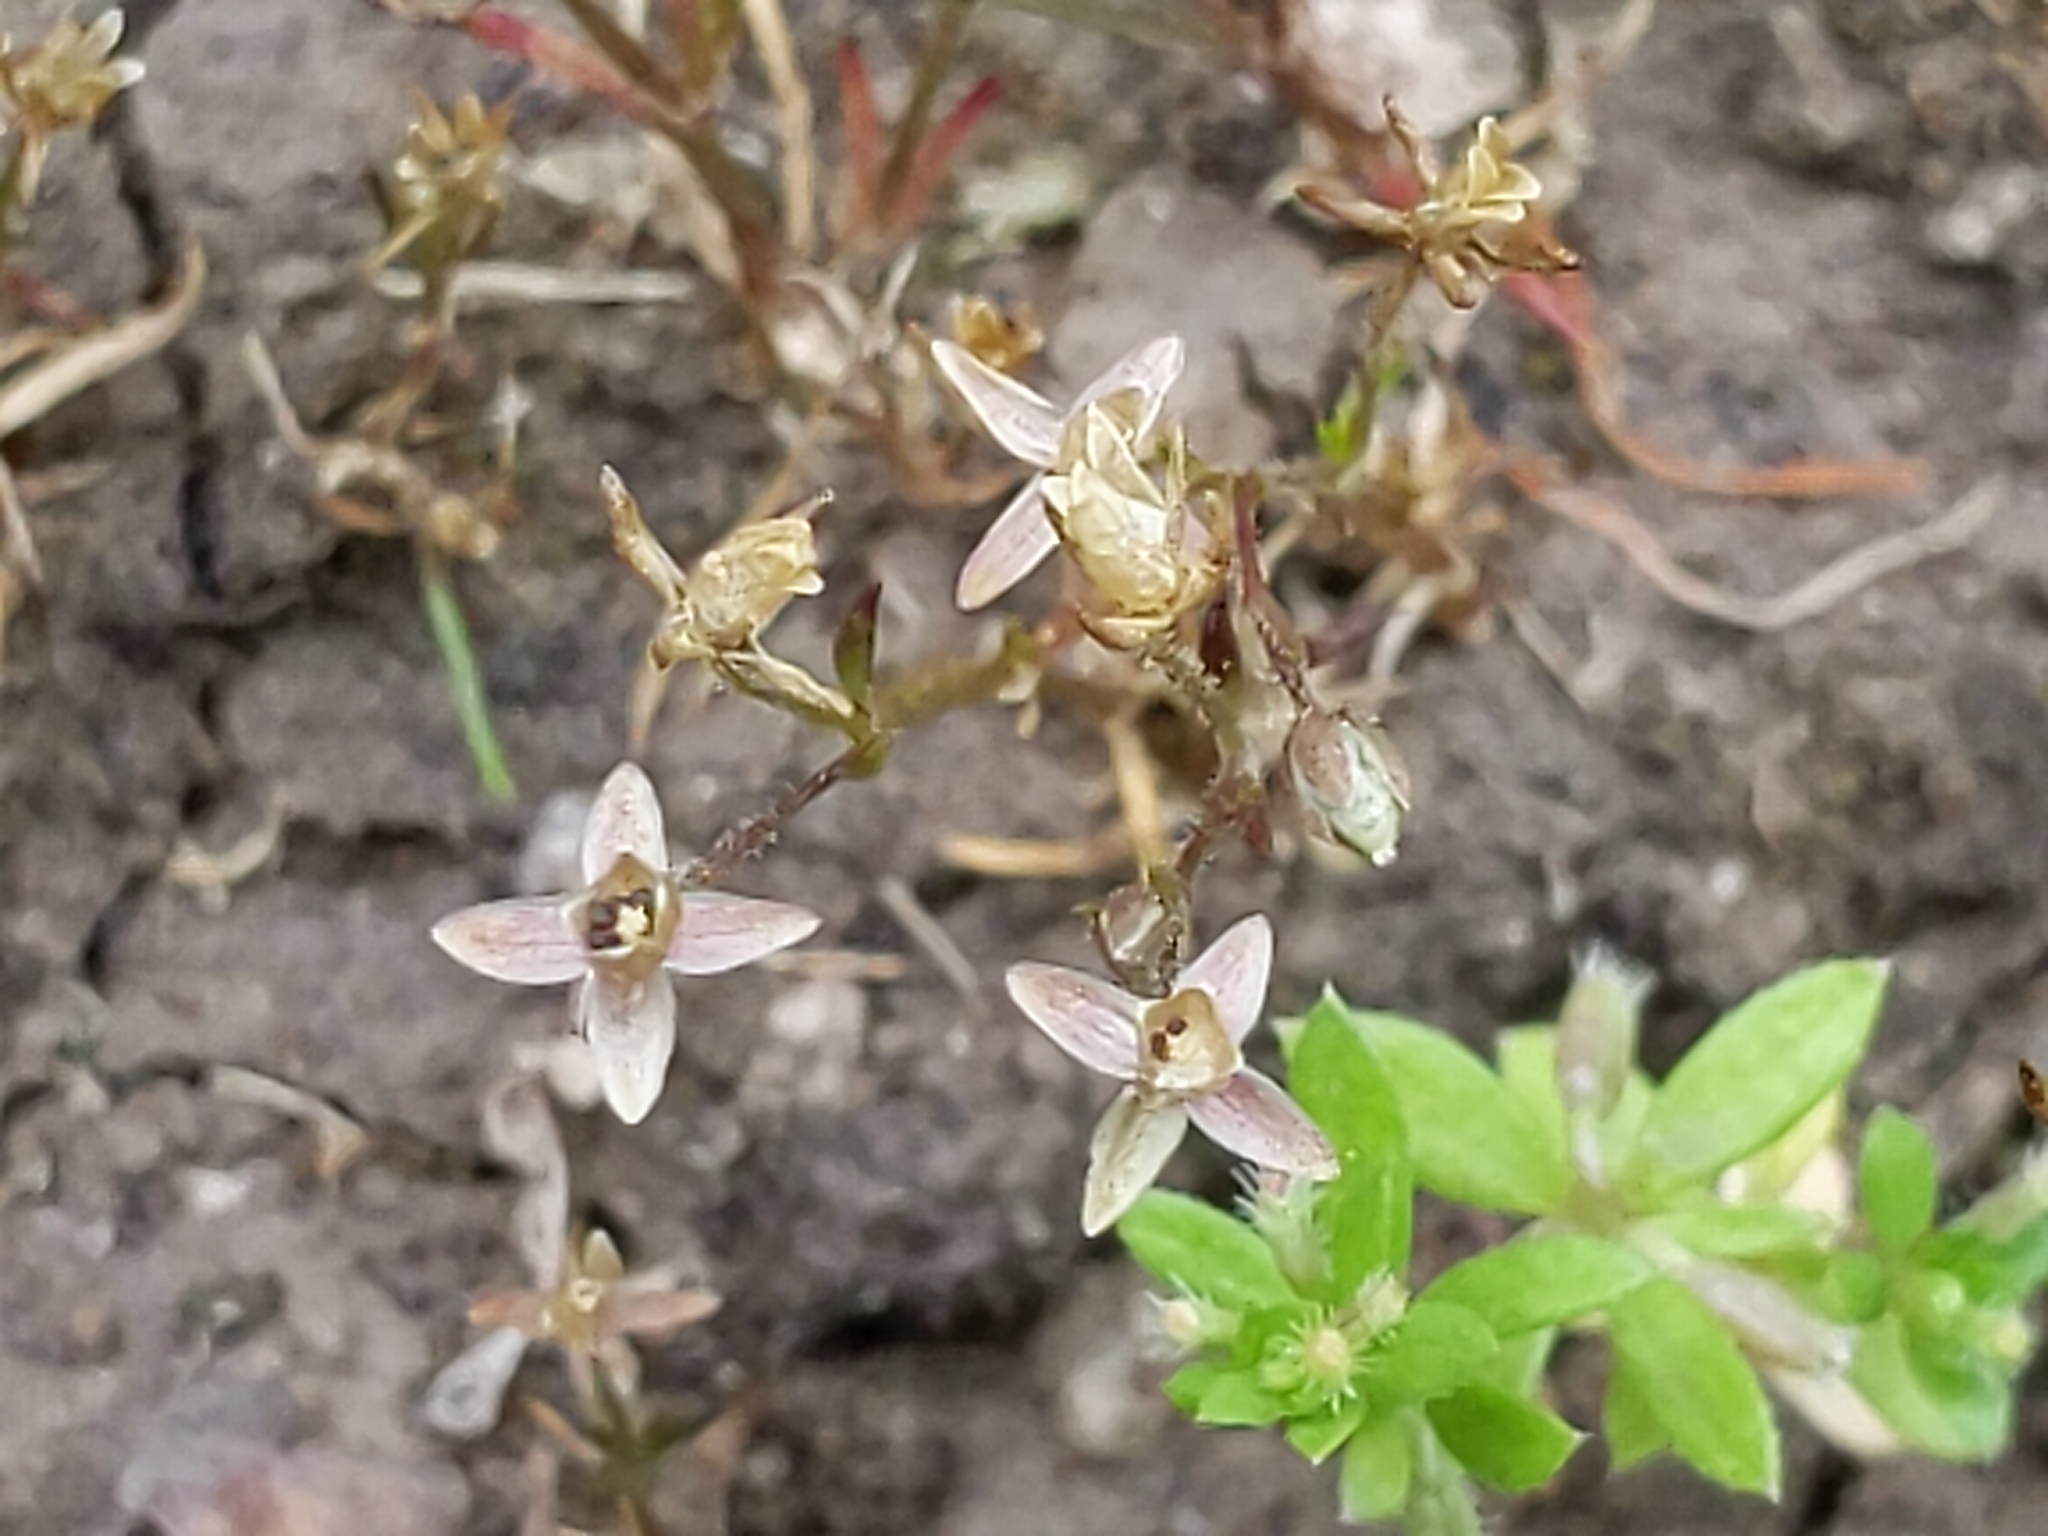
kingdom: Plantae
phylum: Tracheophyta
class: Magnoliopsida
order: Caryophyllales
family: Caryophyllaceae
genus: Sagina
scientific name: Sagina apetala
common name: Annual pearlwort
